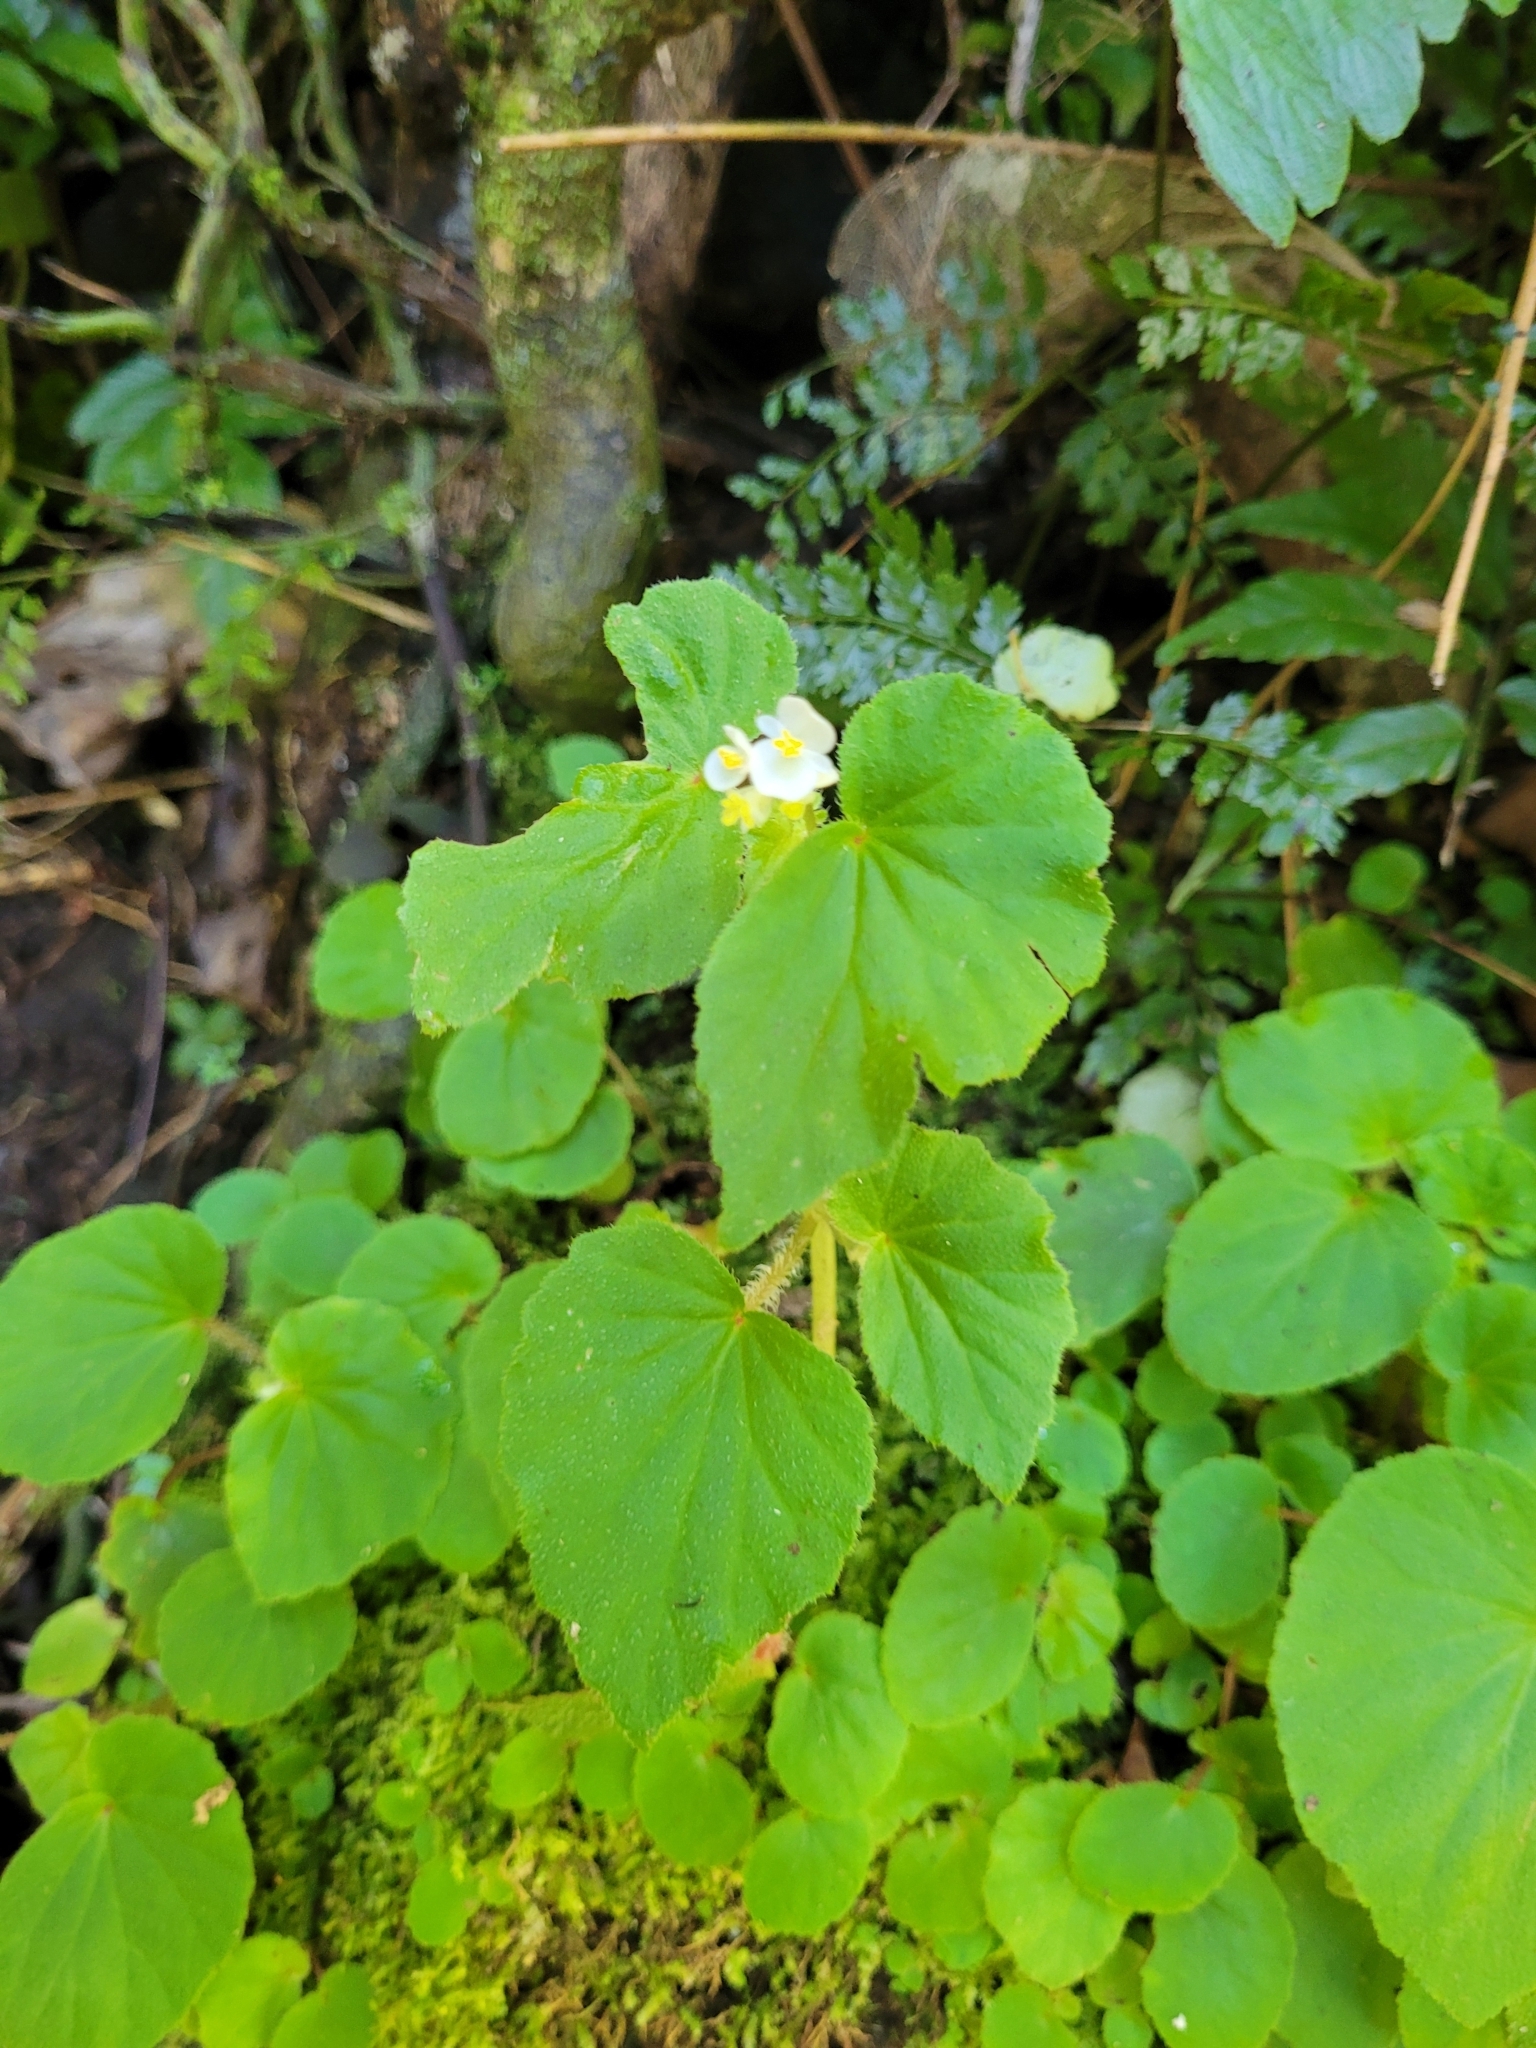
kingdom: Plantae
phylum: Tracheophyta
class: Magnoliopsida
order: Cucurbitales
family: Begoniaceae
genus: Begonia
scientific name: Begonia hirtella
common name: Brazilian begonia
